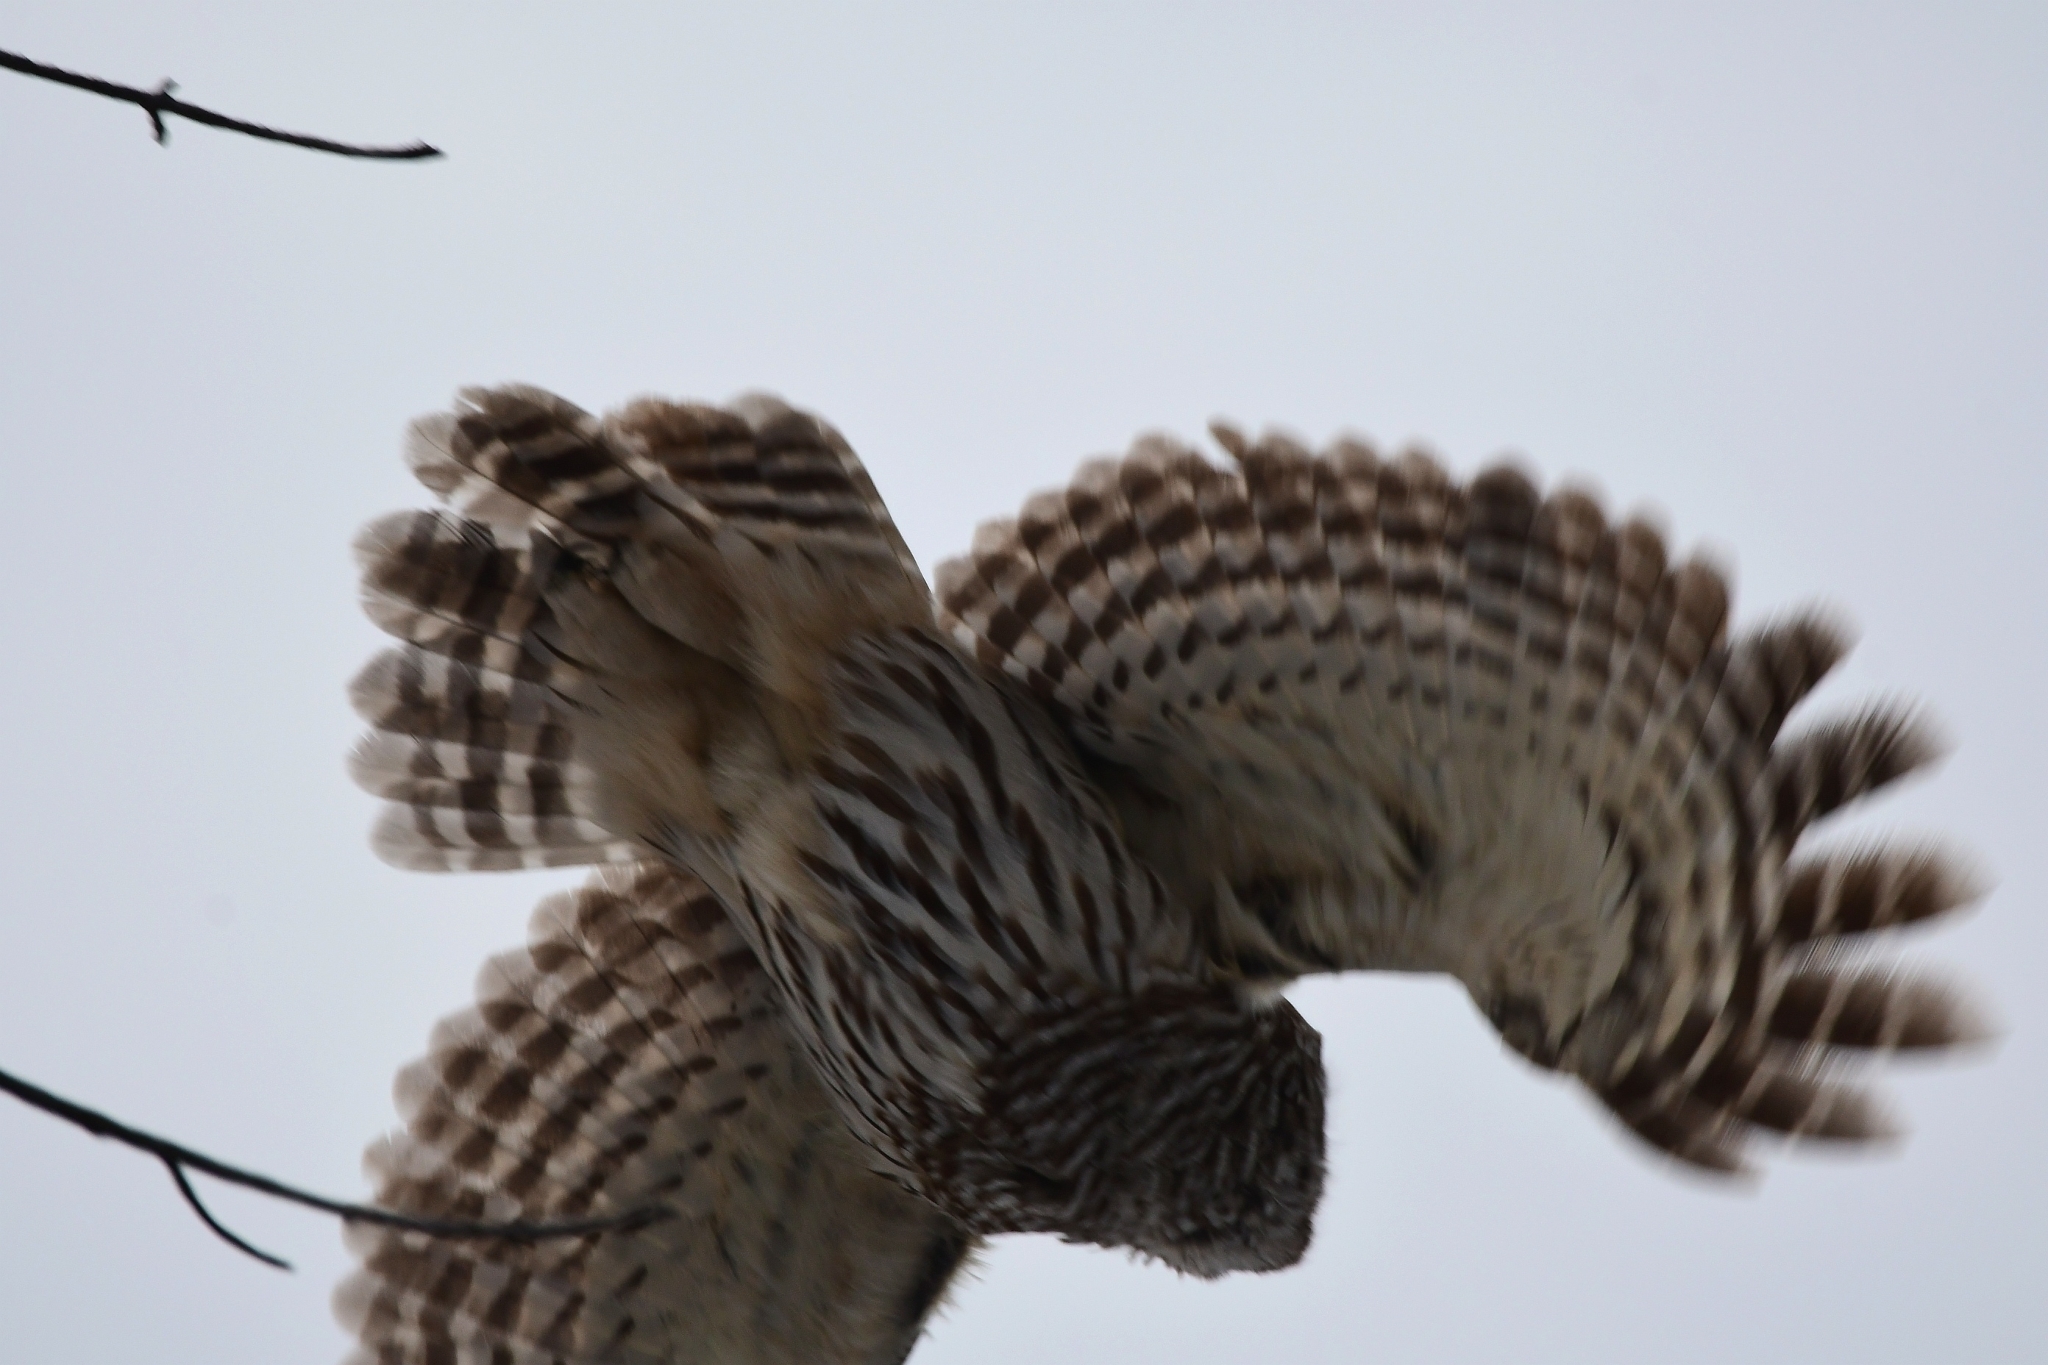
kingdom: Animalia
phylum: Chordata
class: Aves
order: Strigiformes
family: Strigidae
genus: Strix
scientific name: Strix varia
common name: Barred owl
